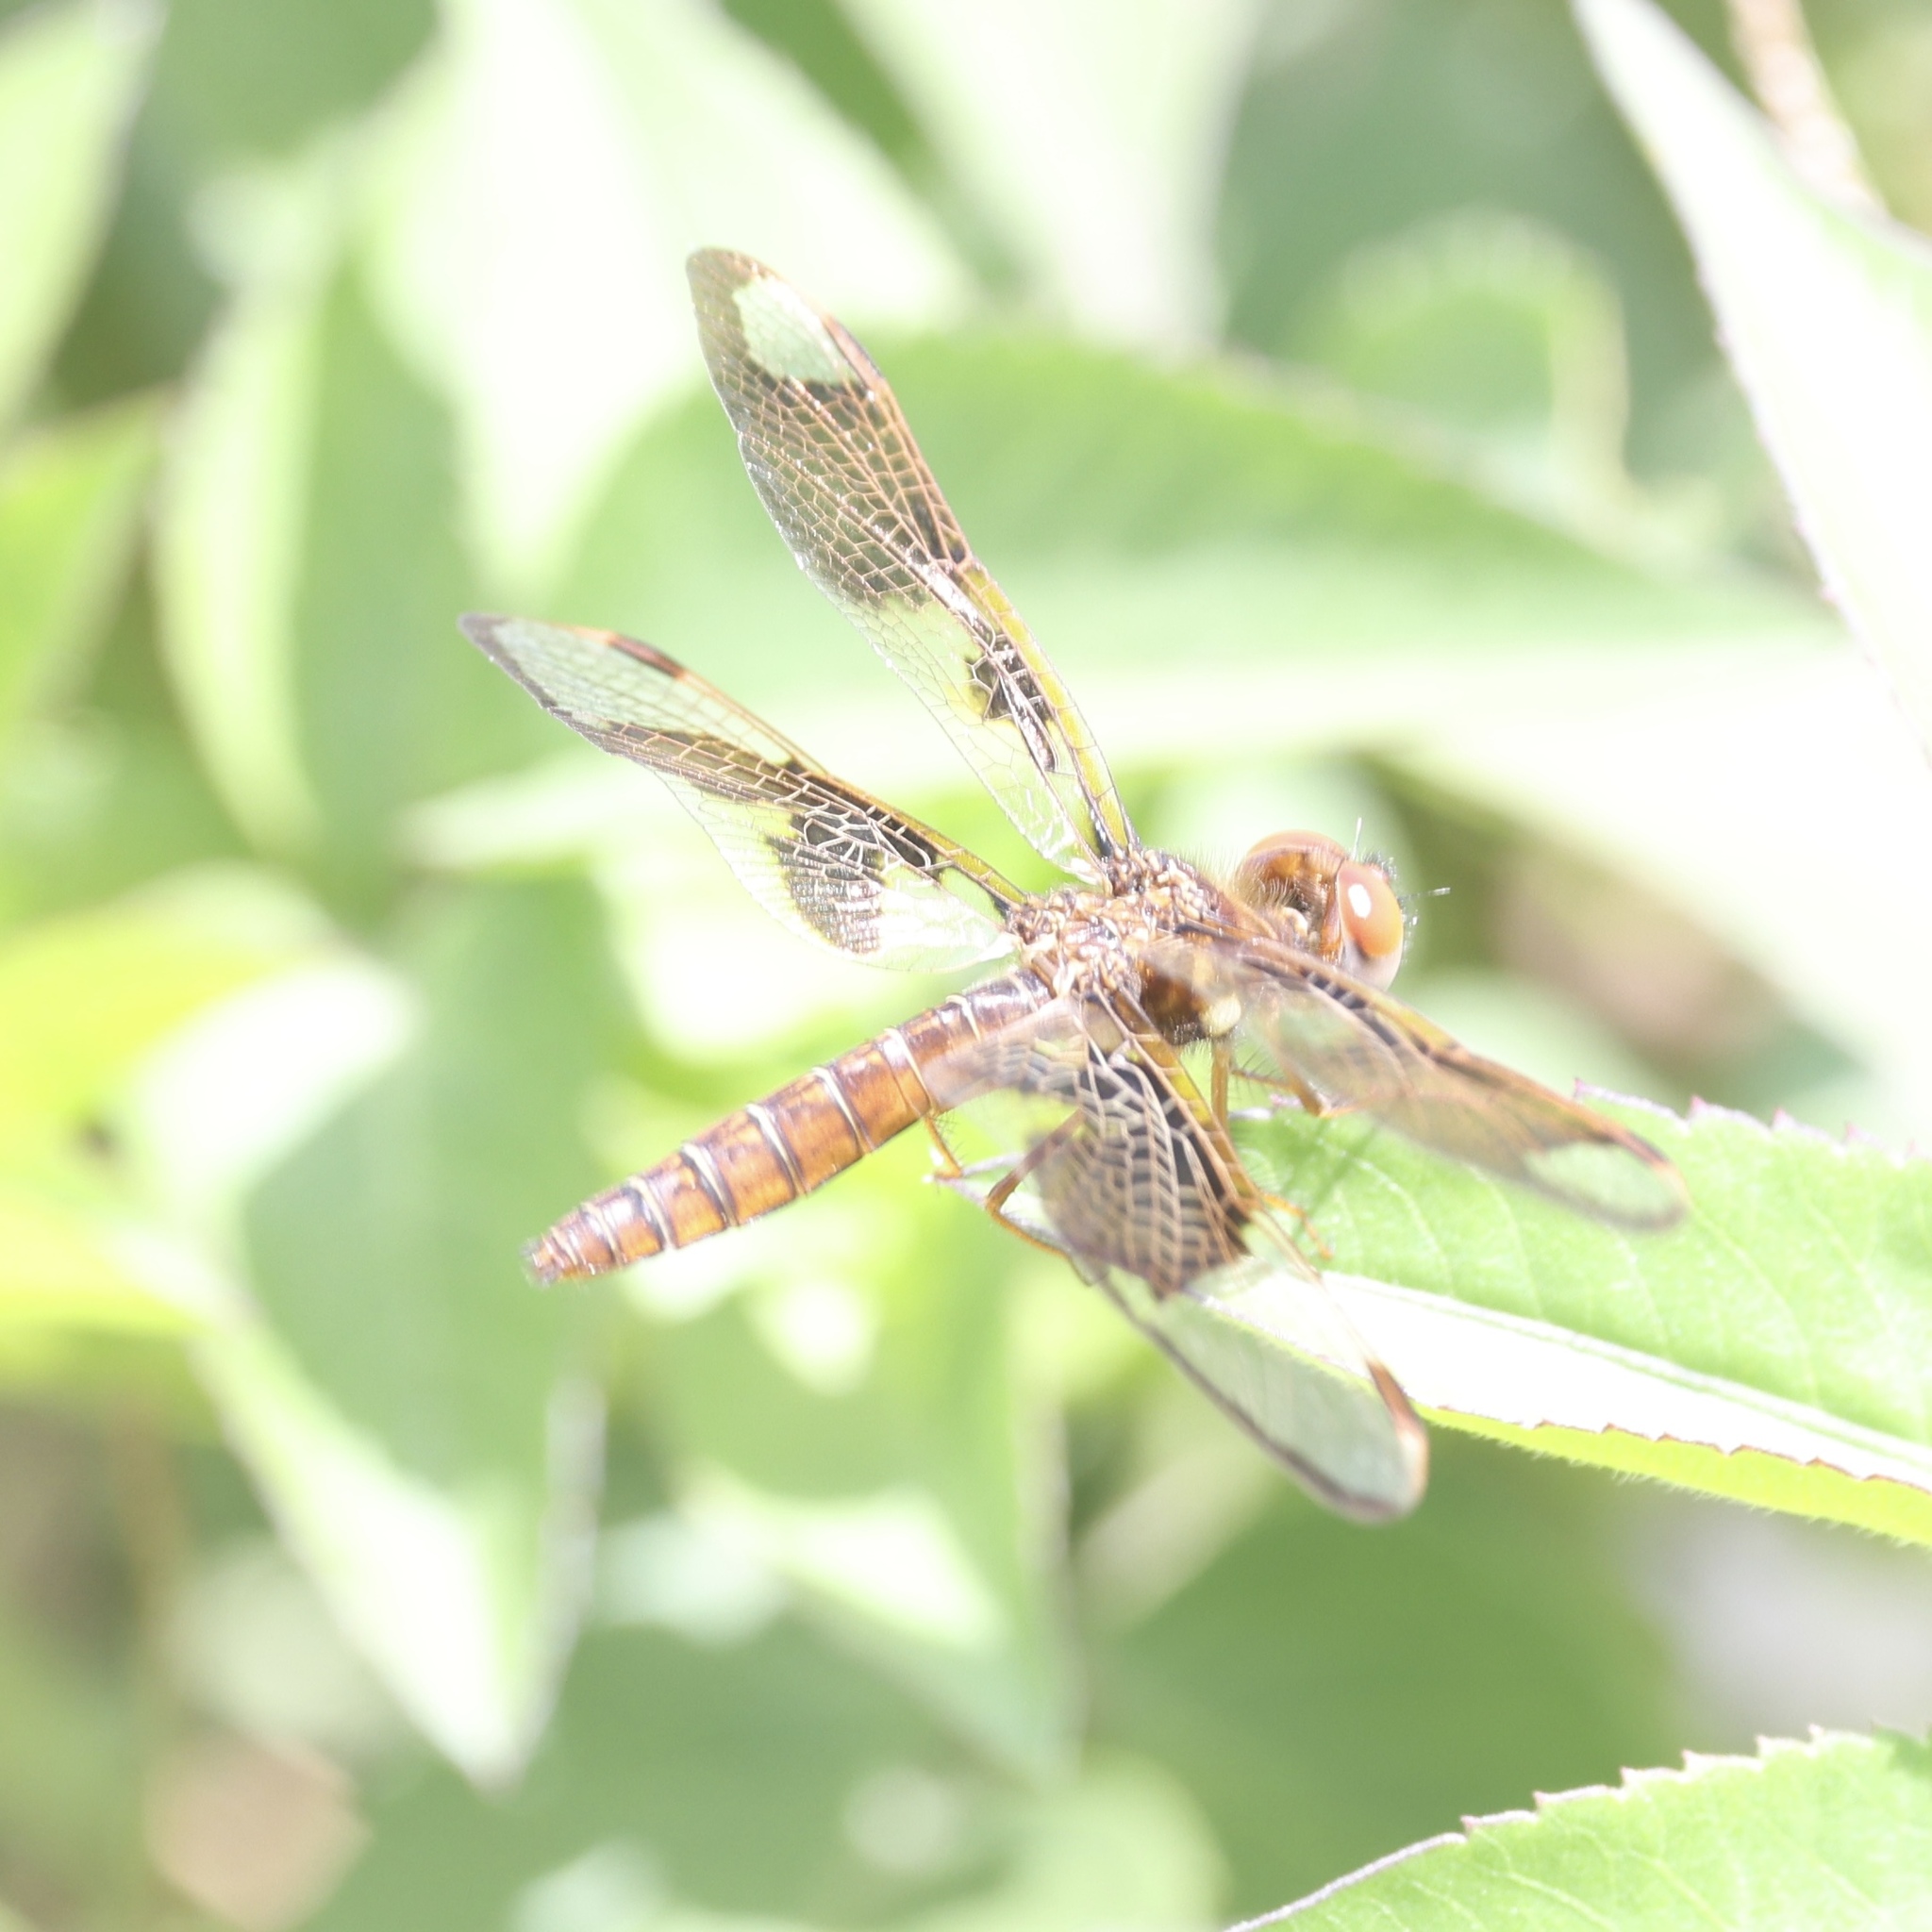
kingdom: Animalia
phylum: Arthropoda
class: Insecta
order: Odonata
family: Libellulidae
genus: Perithemis
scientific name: Perithemis tenera
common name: Eastern amberwing
